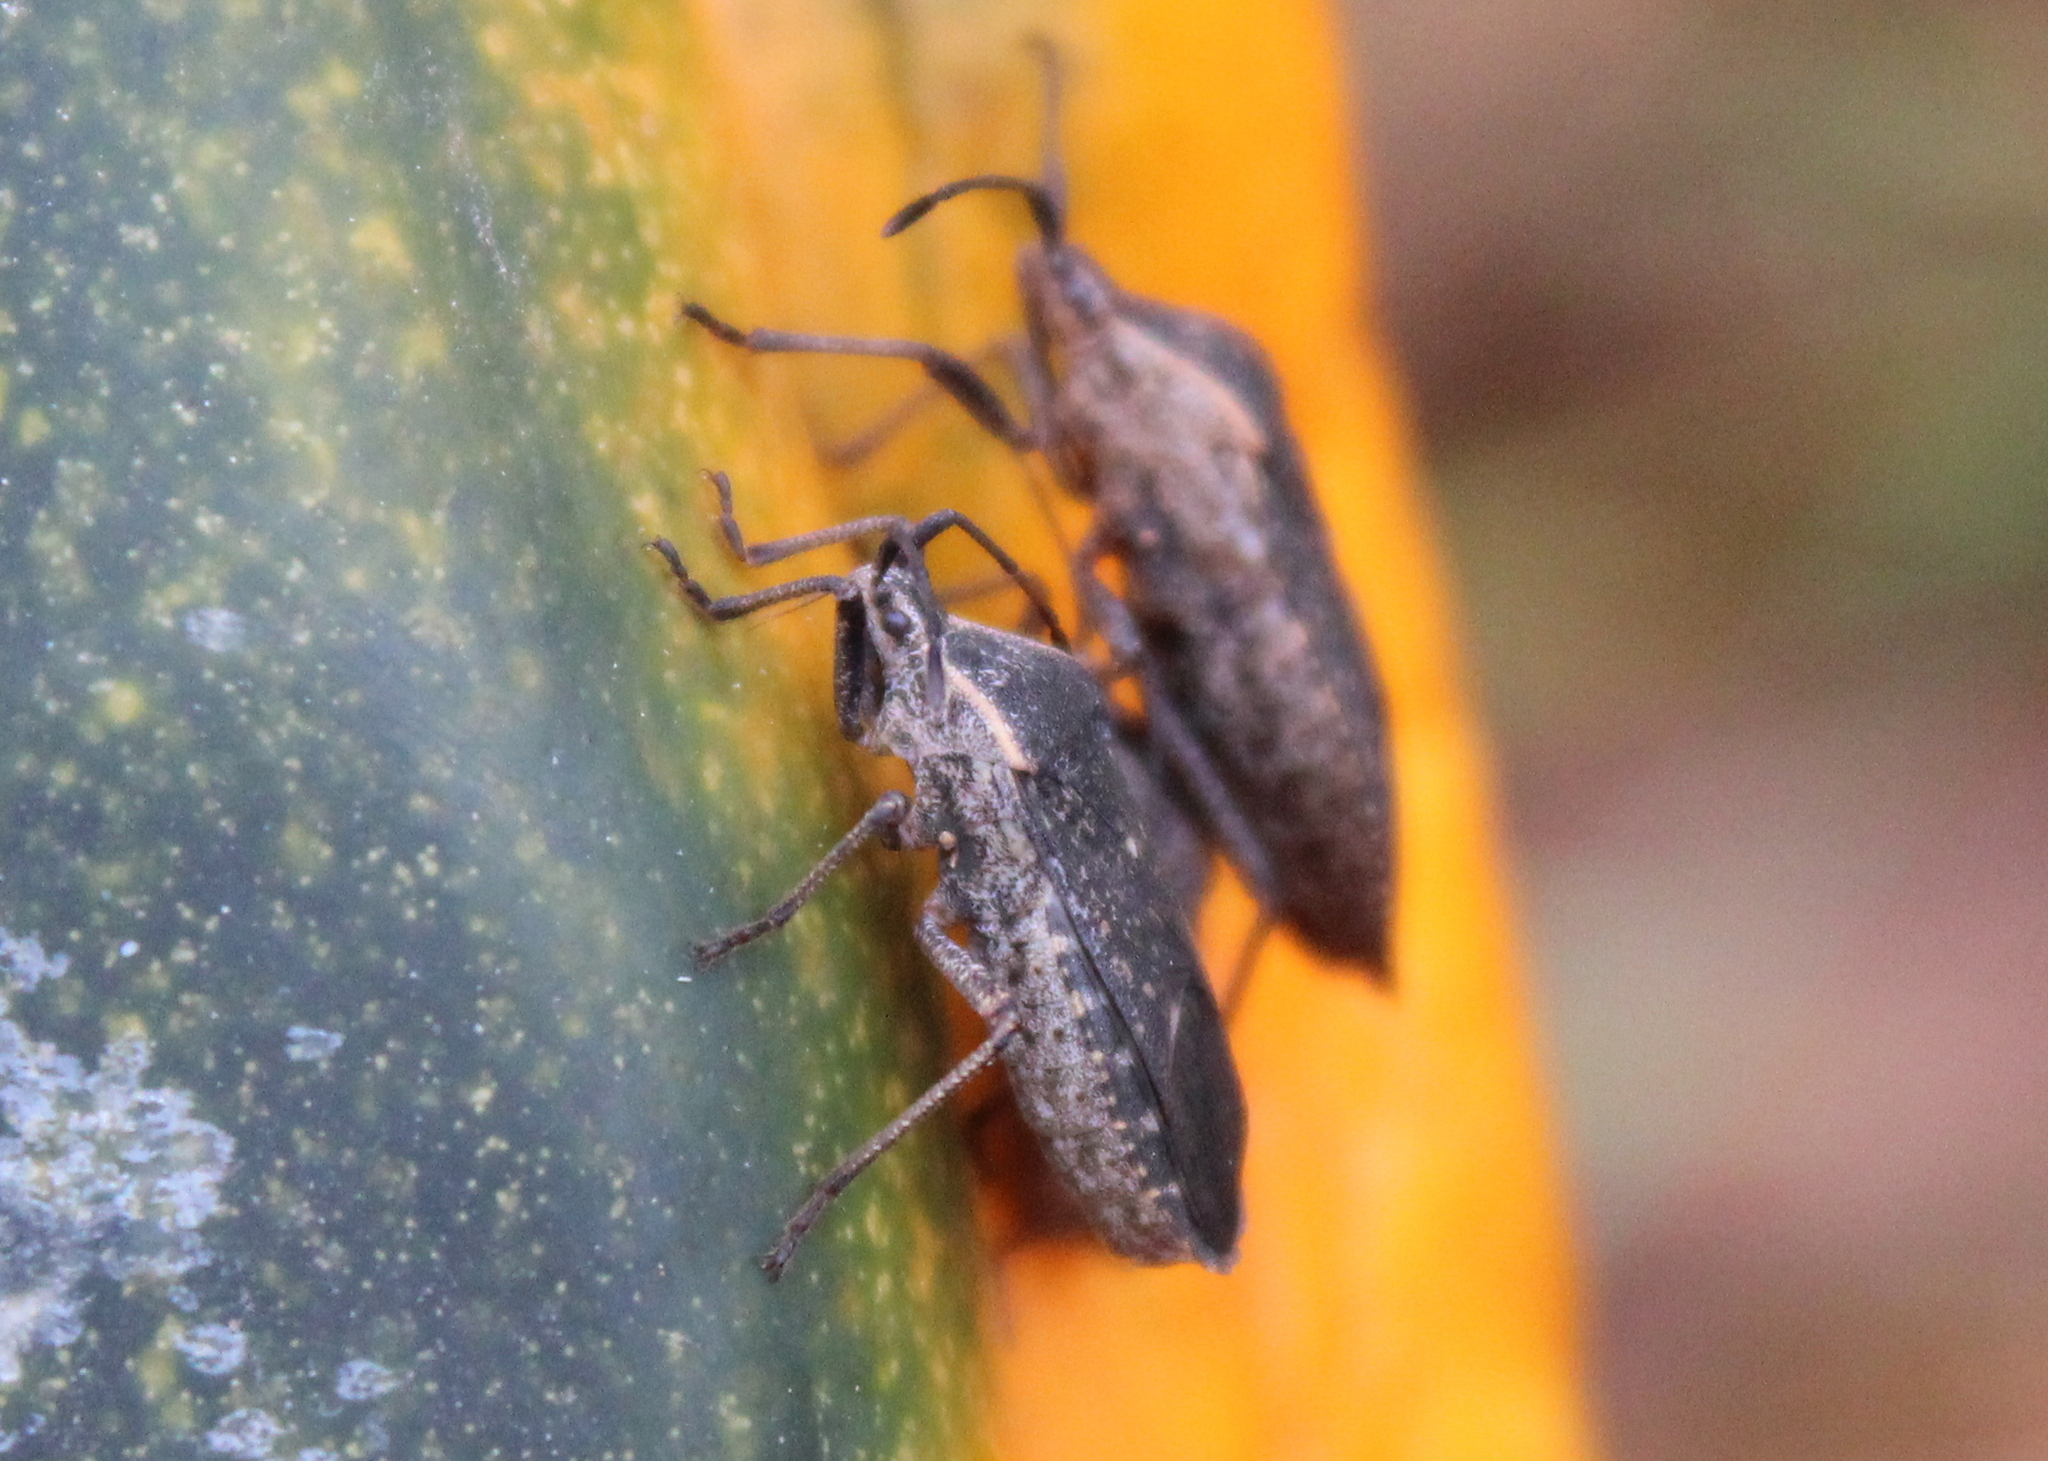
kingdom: Animalia
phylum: Arthropoda
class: Insecta
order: Hemiptera
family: Coreidae
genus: Anasa
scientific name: Anasa tristis
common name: Squash bug
